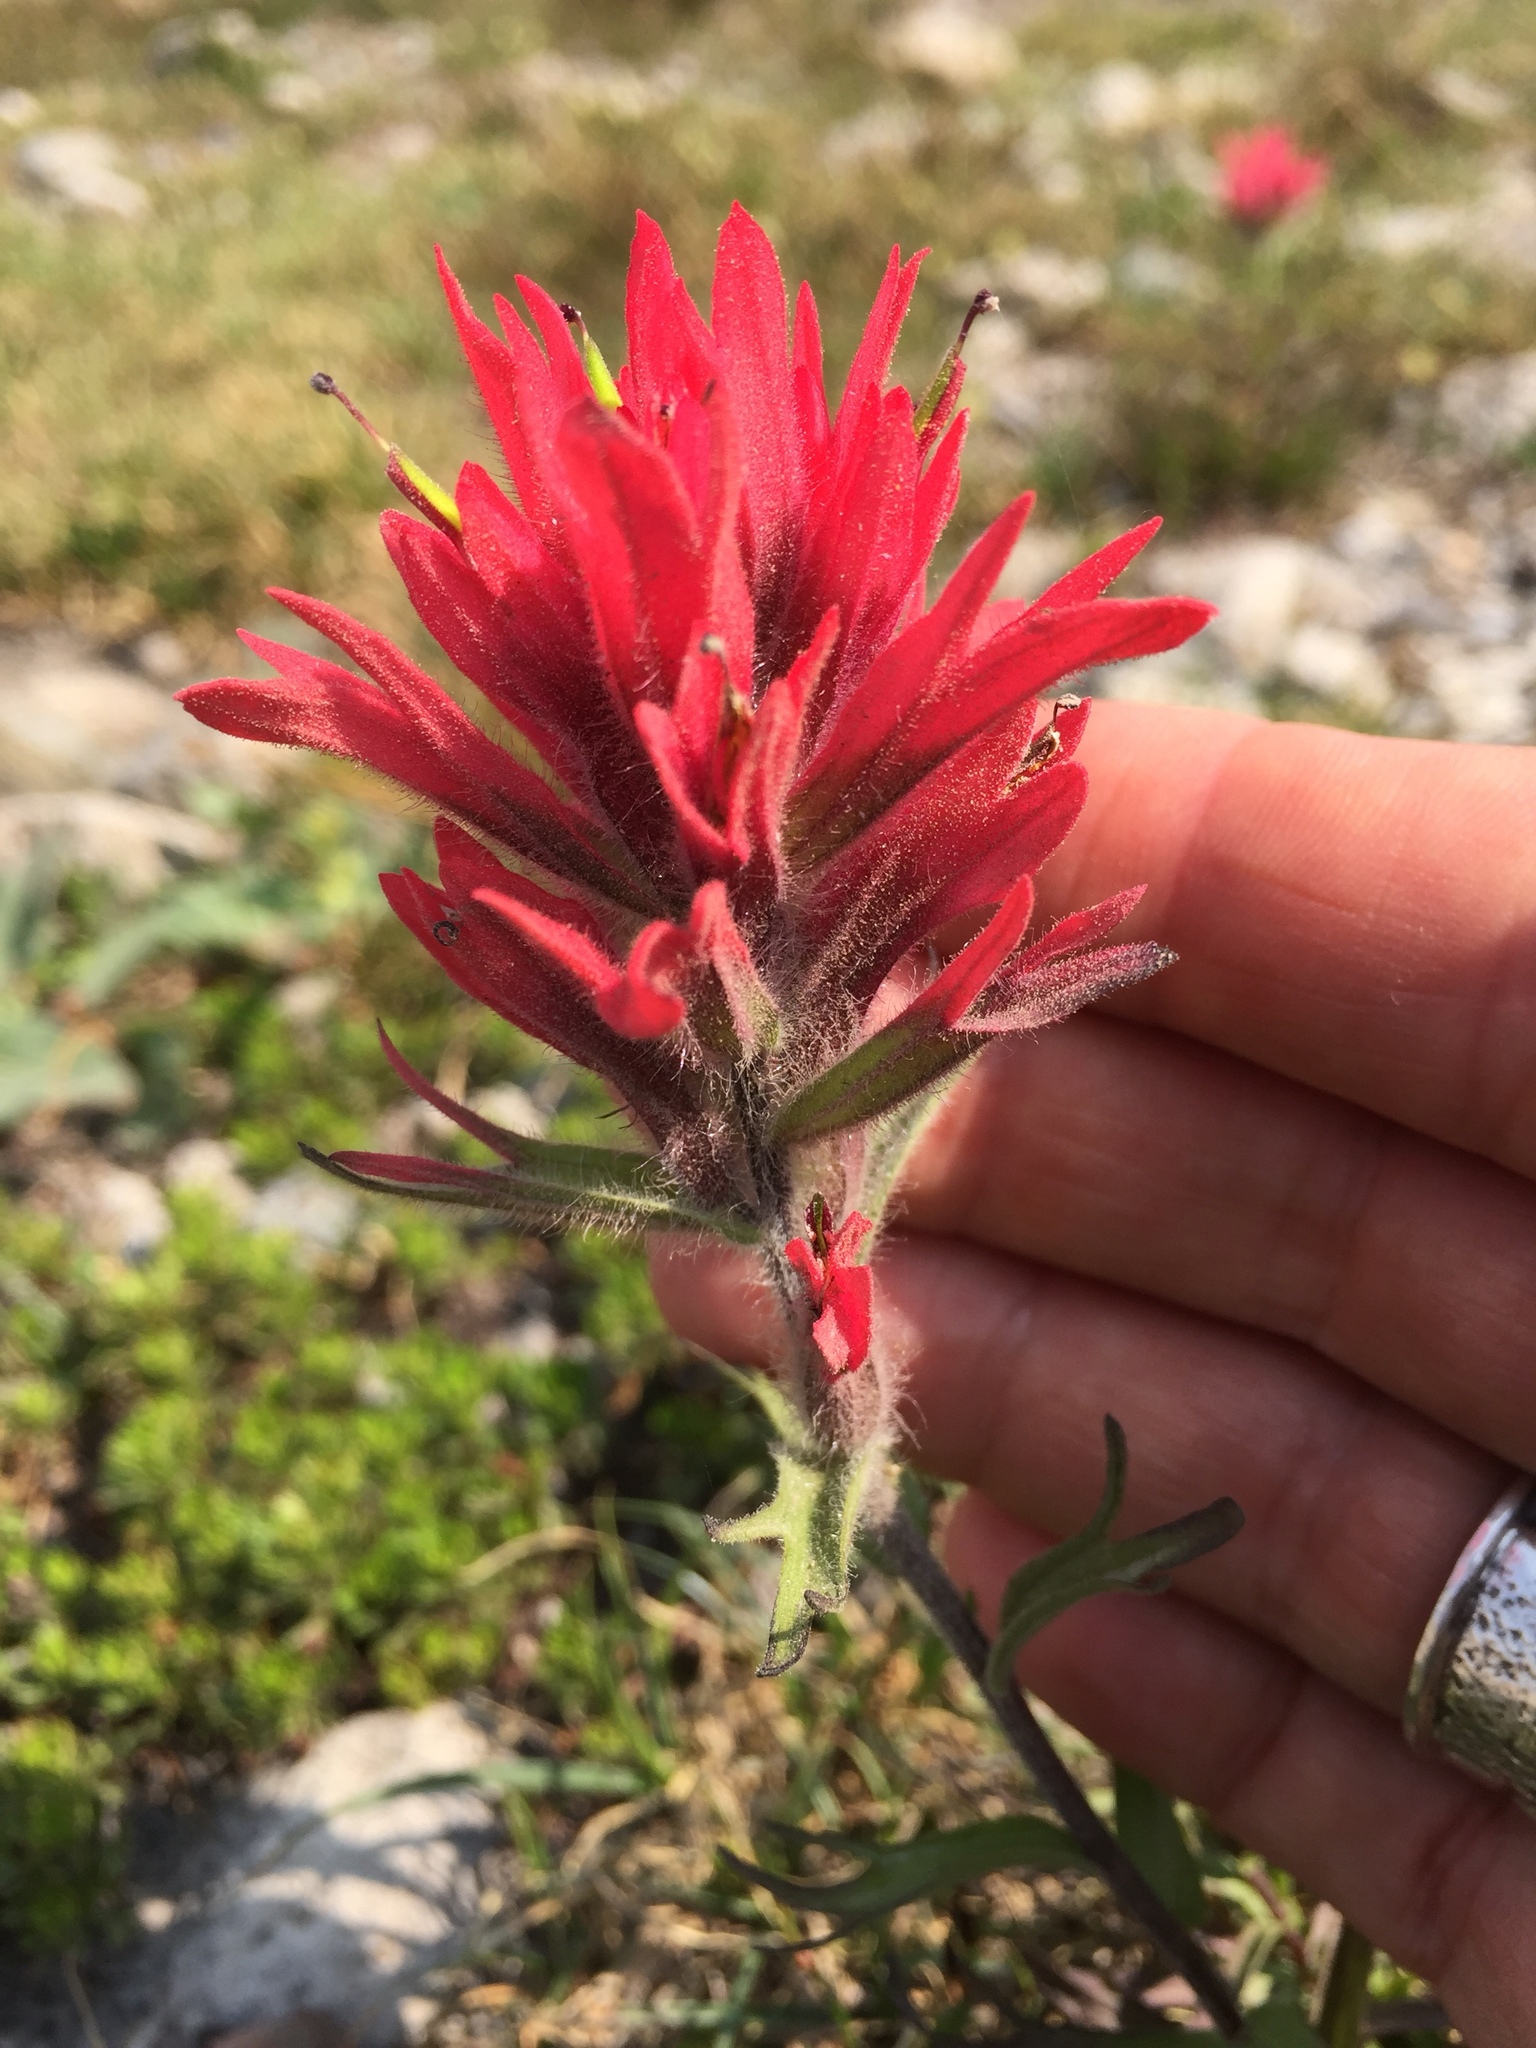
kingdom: Plantae
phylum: Tracheophyta
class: Magnoliopsida
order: Lamiales
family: Orobanchaceae
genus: Castilleja
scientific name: Castilleja parviflora
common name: Mountain paintbrush
